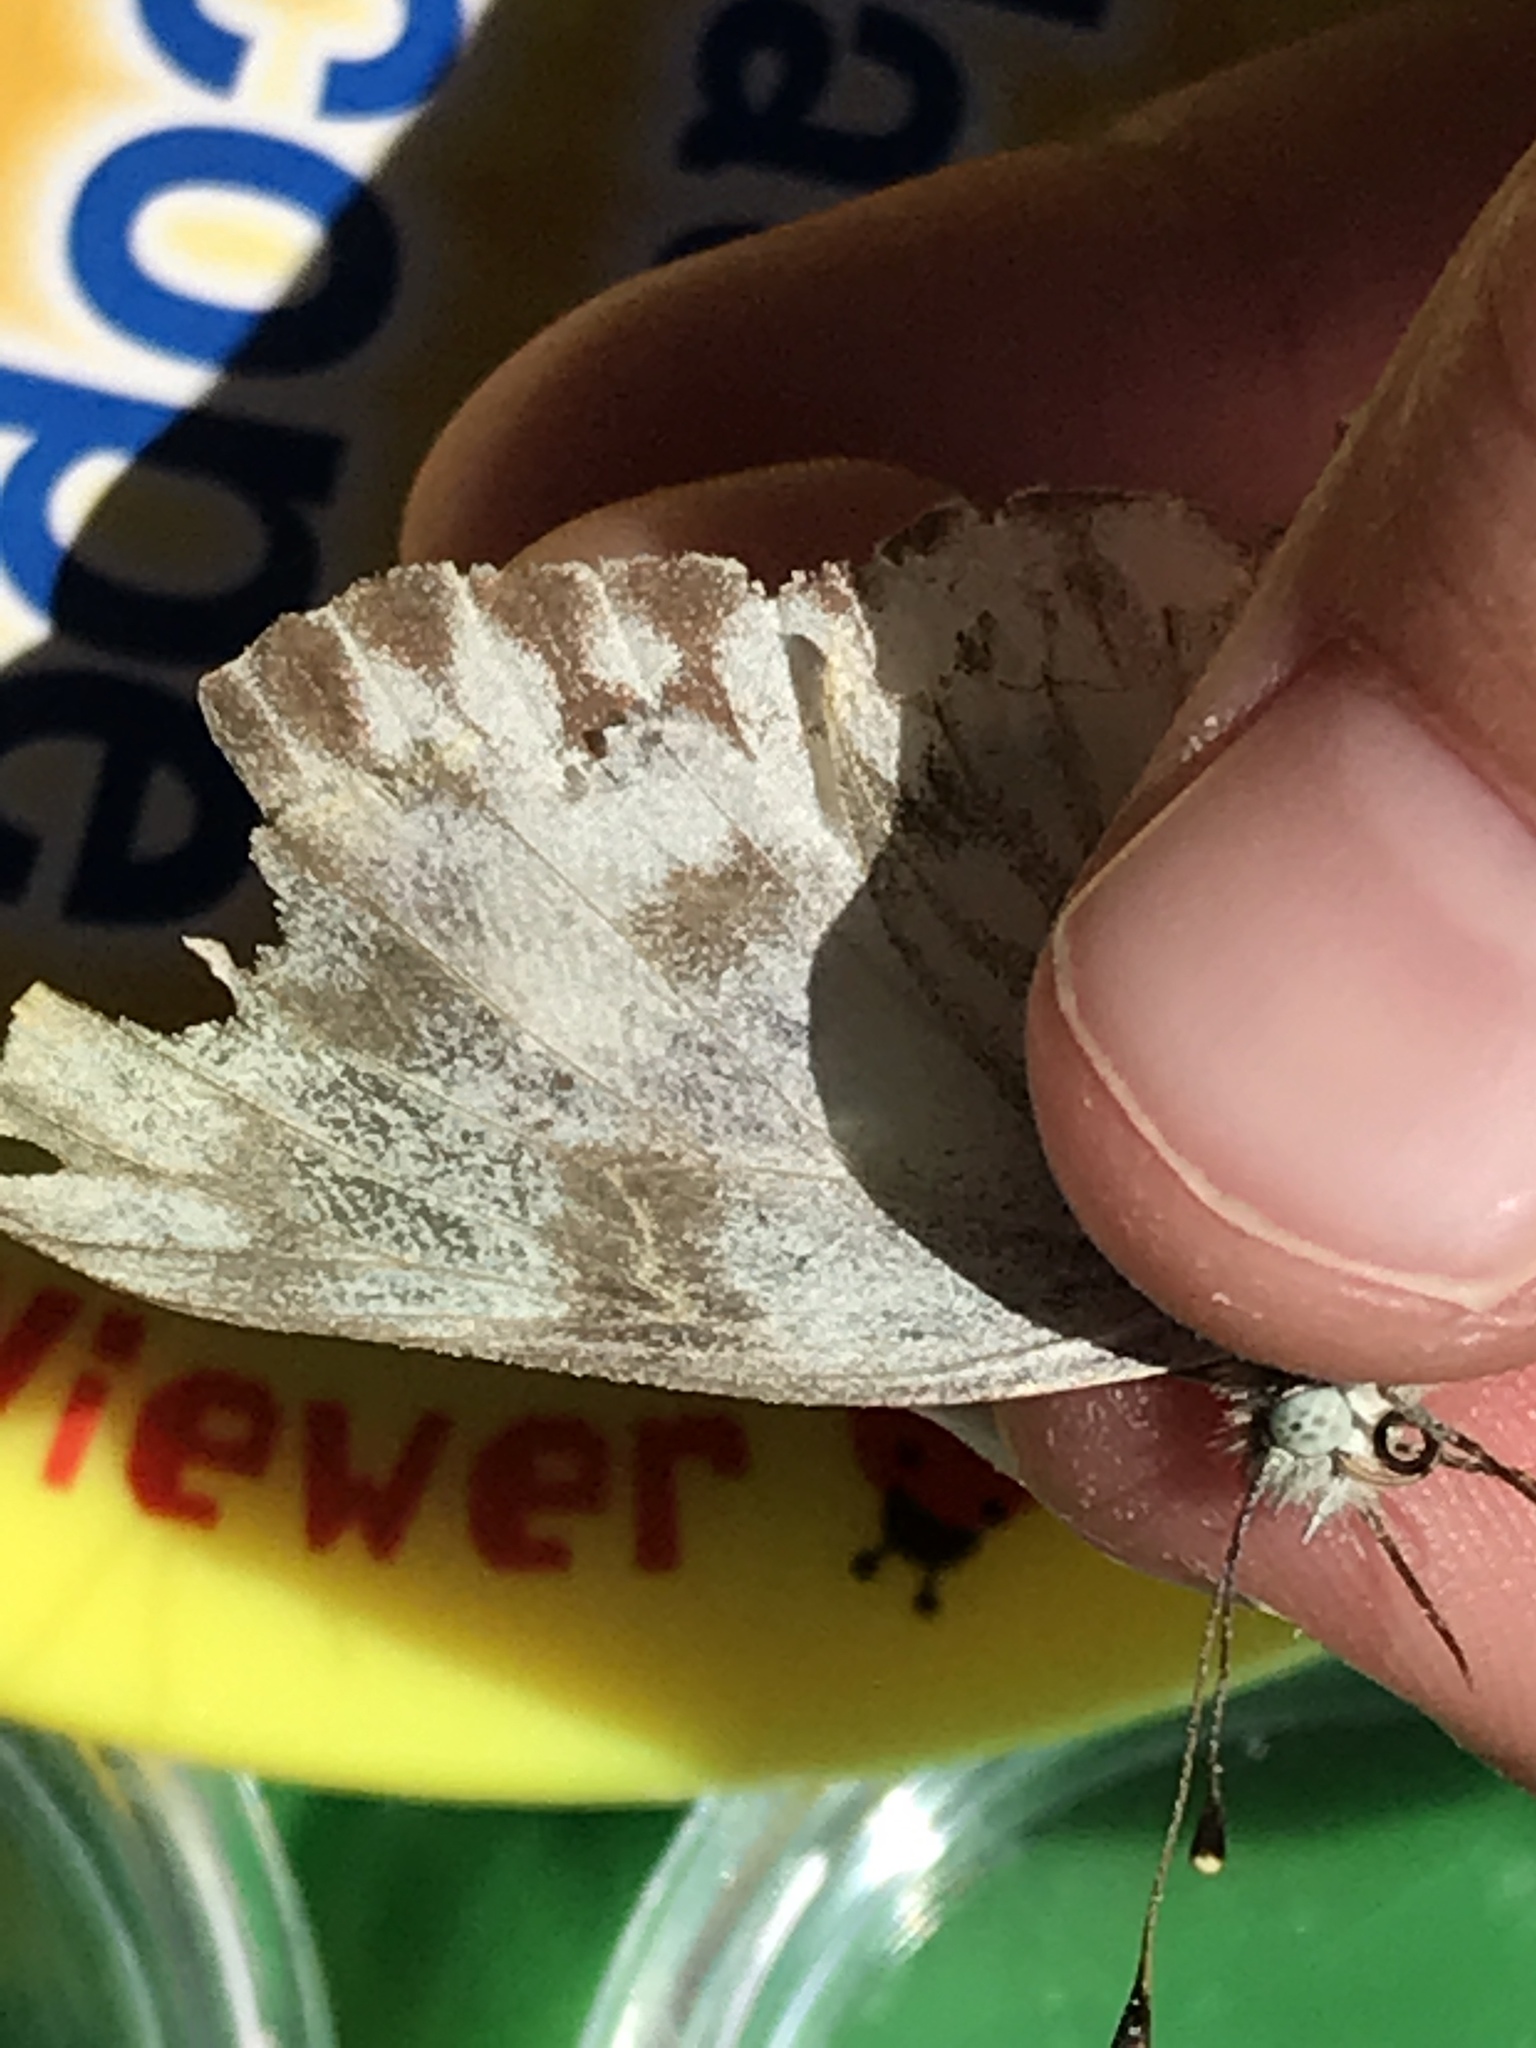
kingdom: Animalia
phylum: Arthropoda
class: Insecta
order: Lepidoptera
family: Pieridae
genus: Pontia
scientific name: Pontia protodice
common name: Checkered white
